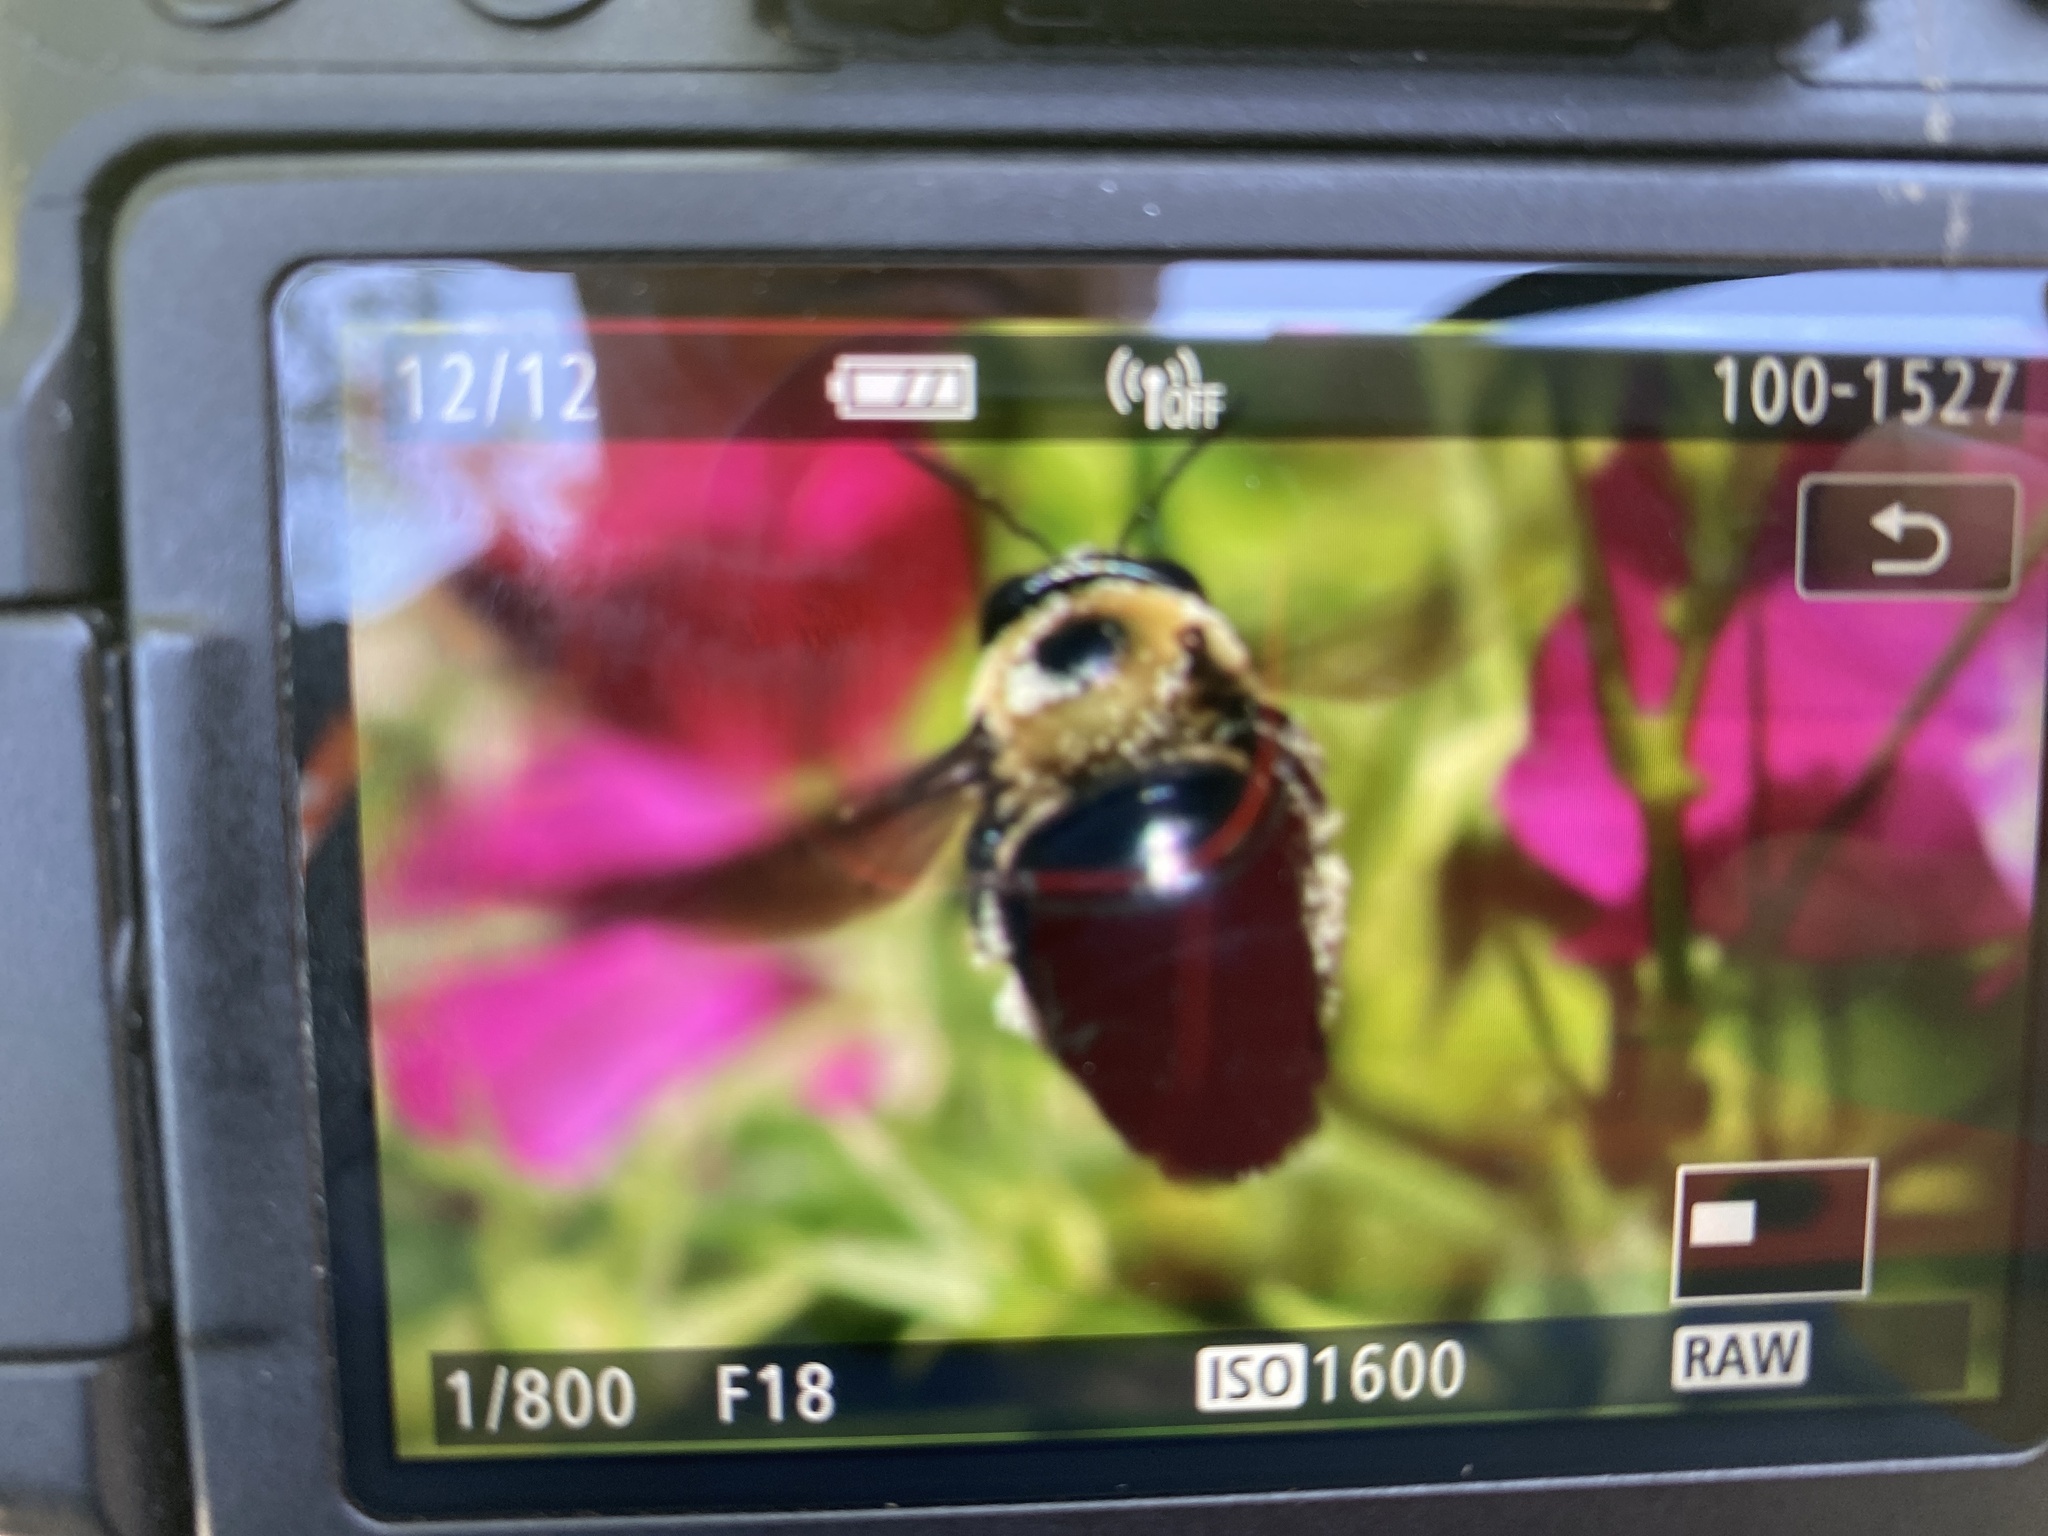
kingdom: Animalia
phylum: Arthropoda
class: Insecta
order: Hymenoptera
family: Apidae
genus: Xylocopa
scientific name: Xylocopa virginica
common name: Carpenter bee
